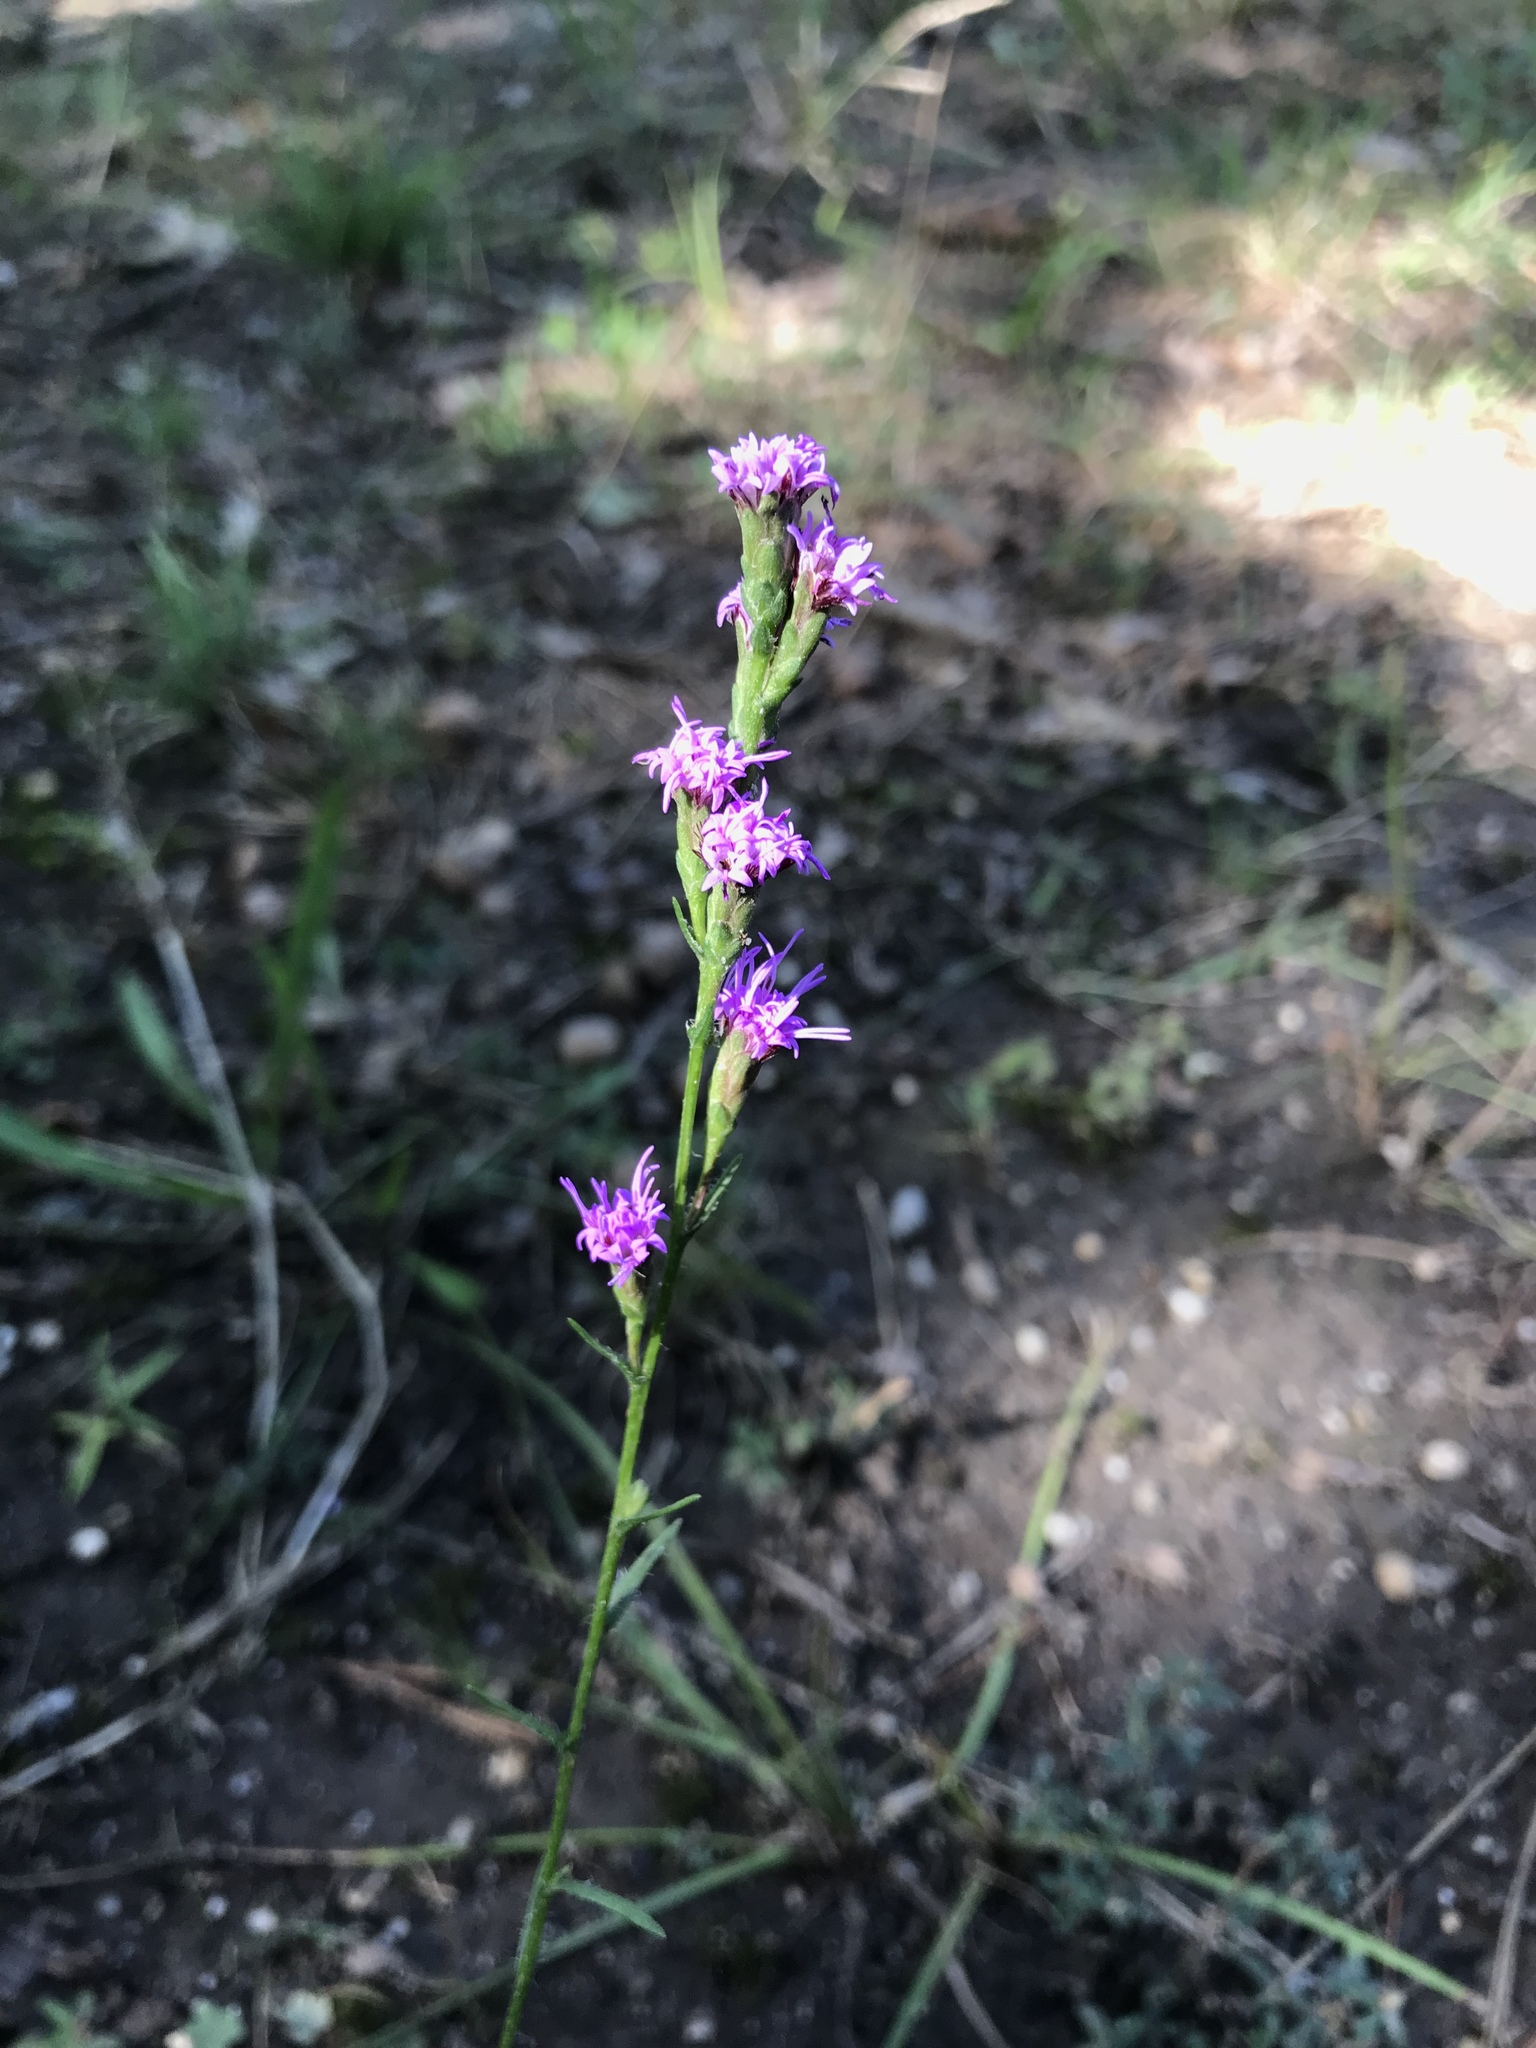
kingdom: Plantae
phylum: Tracheophyta
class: Magnoliopsida
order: Asterales
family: Asteraceae
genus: Liatris
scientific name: Liatris pilosa
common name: Grass-leaf gayfeather
